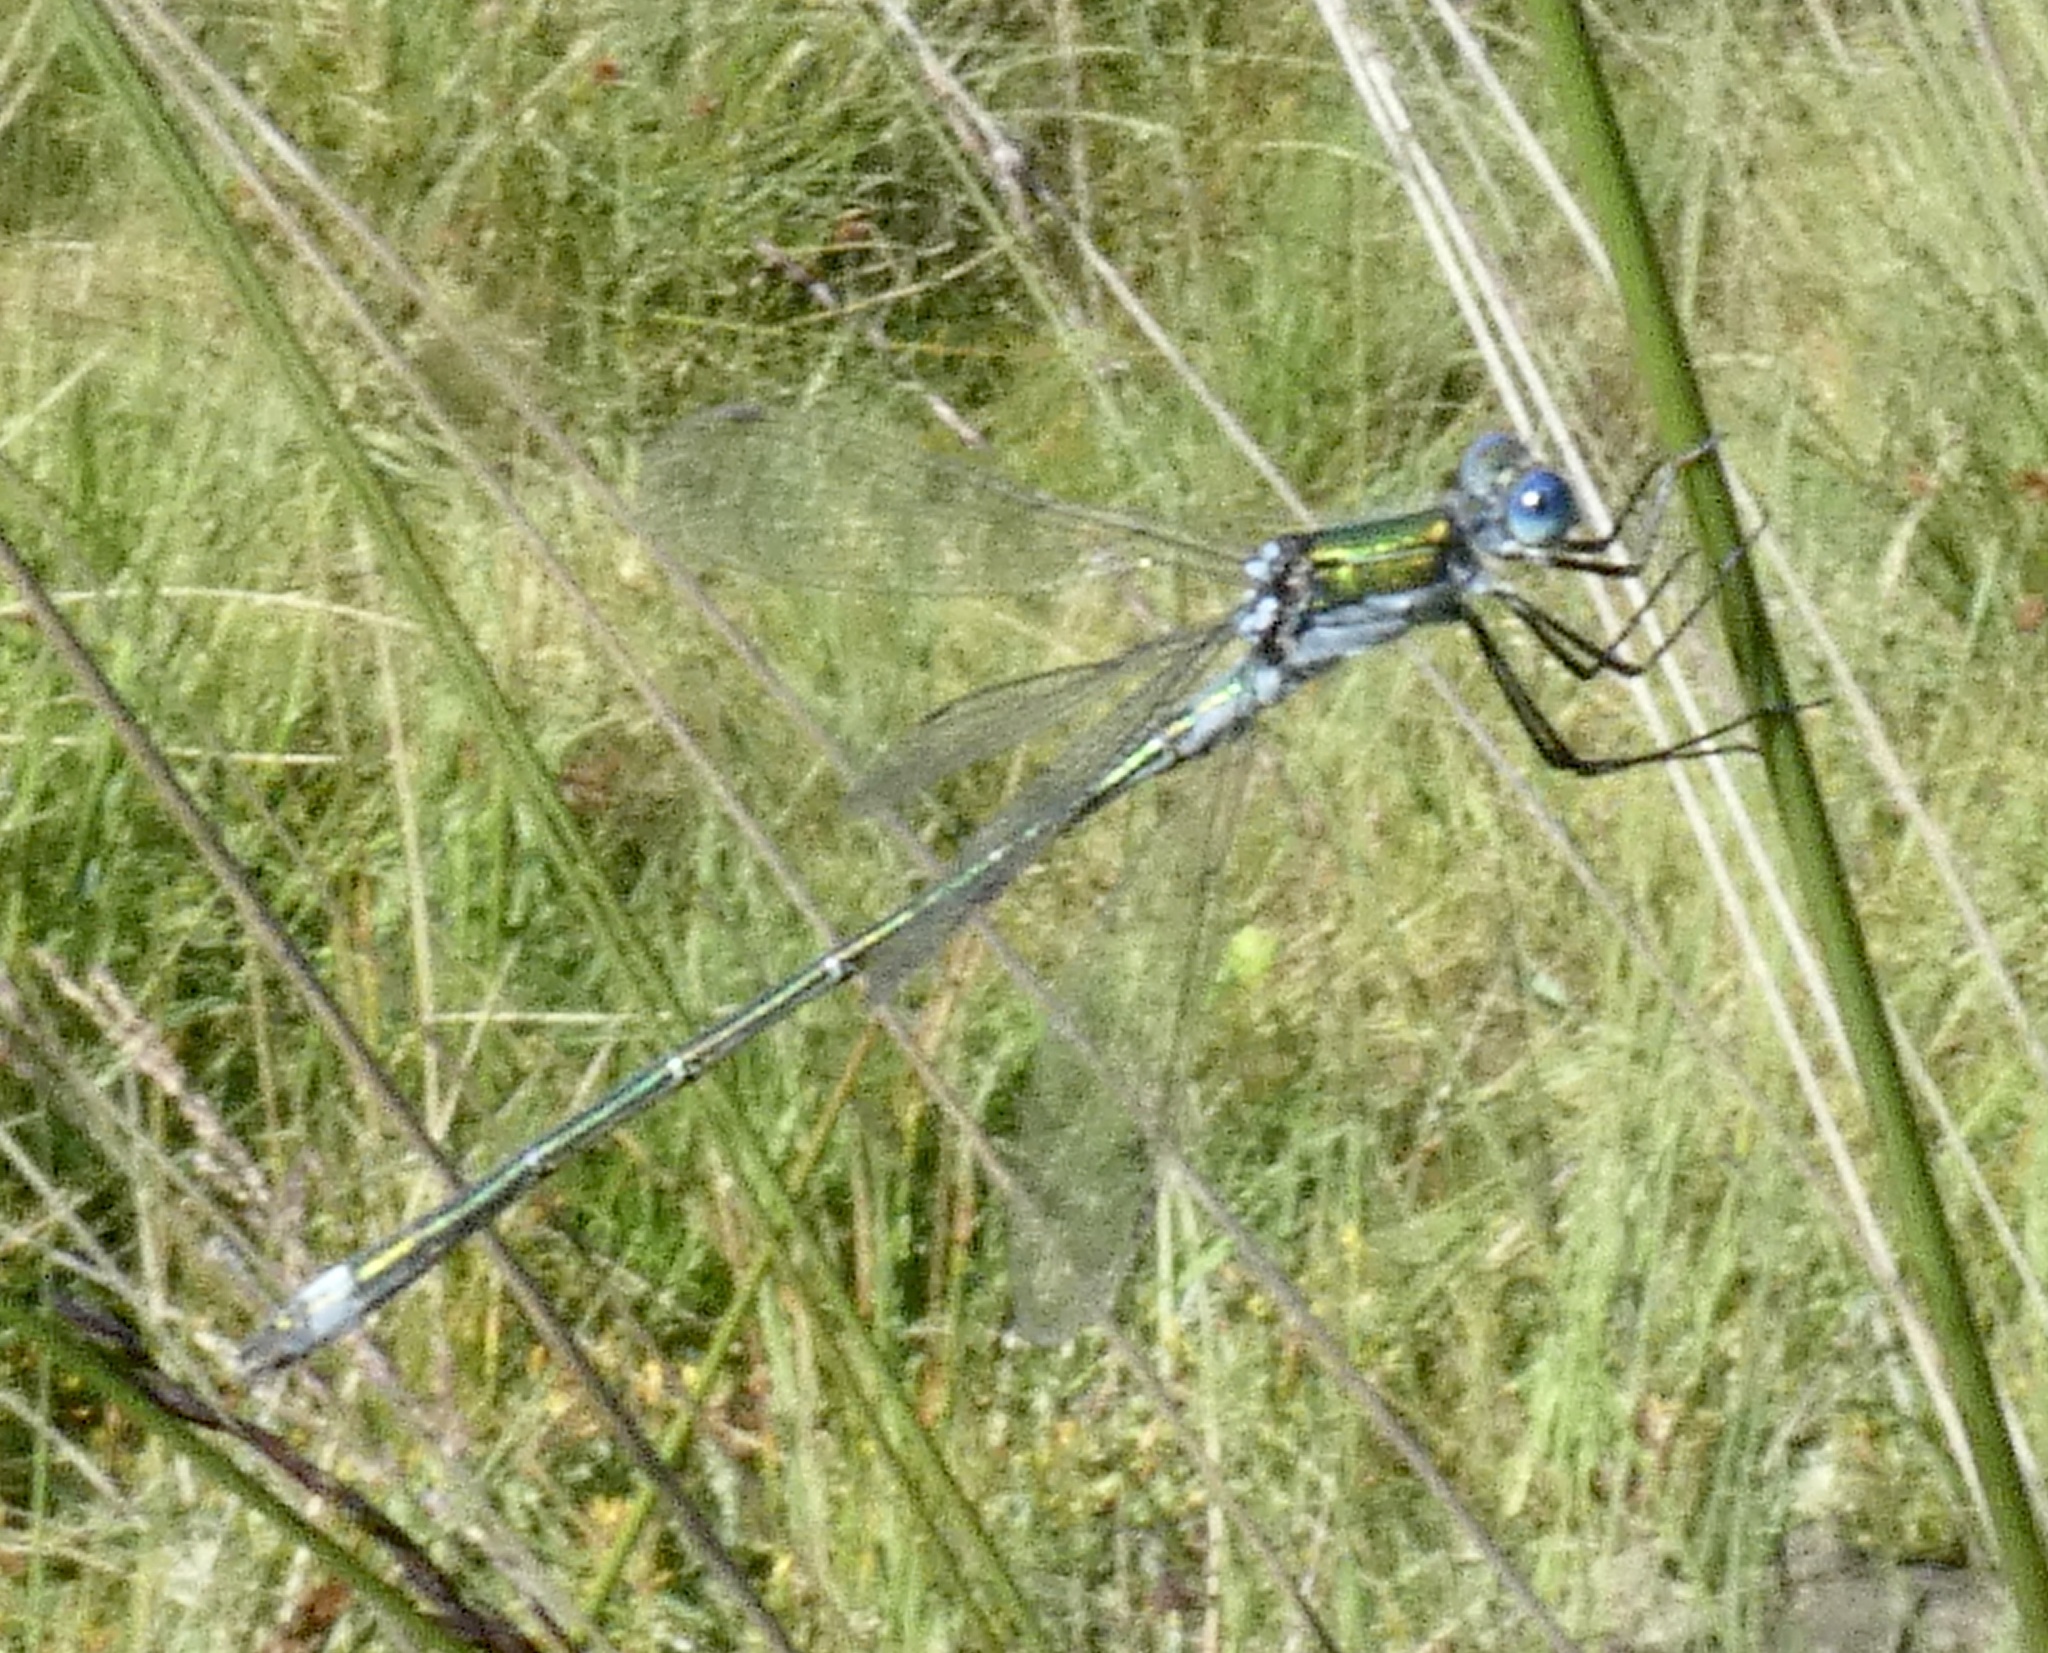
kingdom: Animalia
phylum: Arthropoda
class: Insecta
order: Odonata
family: Lestidae
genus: Lestes
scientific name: Lestes sponsa
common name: Common spreadwing
